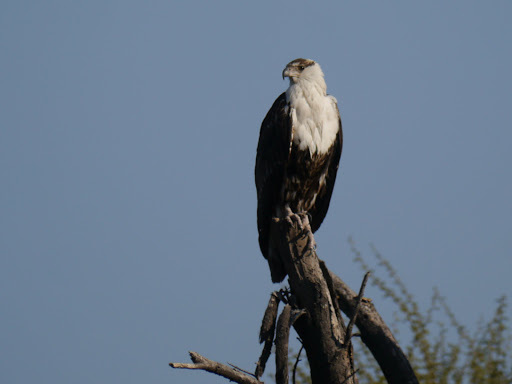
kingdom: Animalia
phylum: Chordata
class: Aves
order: Accipitriformes
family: Accipitridae
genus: Haliaeetus
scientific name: Haliaeetus vocifer
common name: African fish eagle
